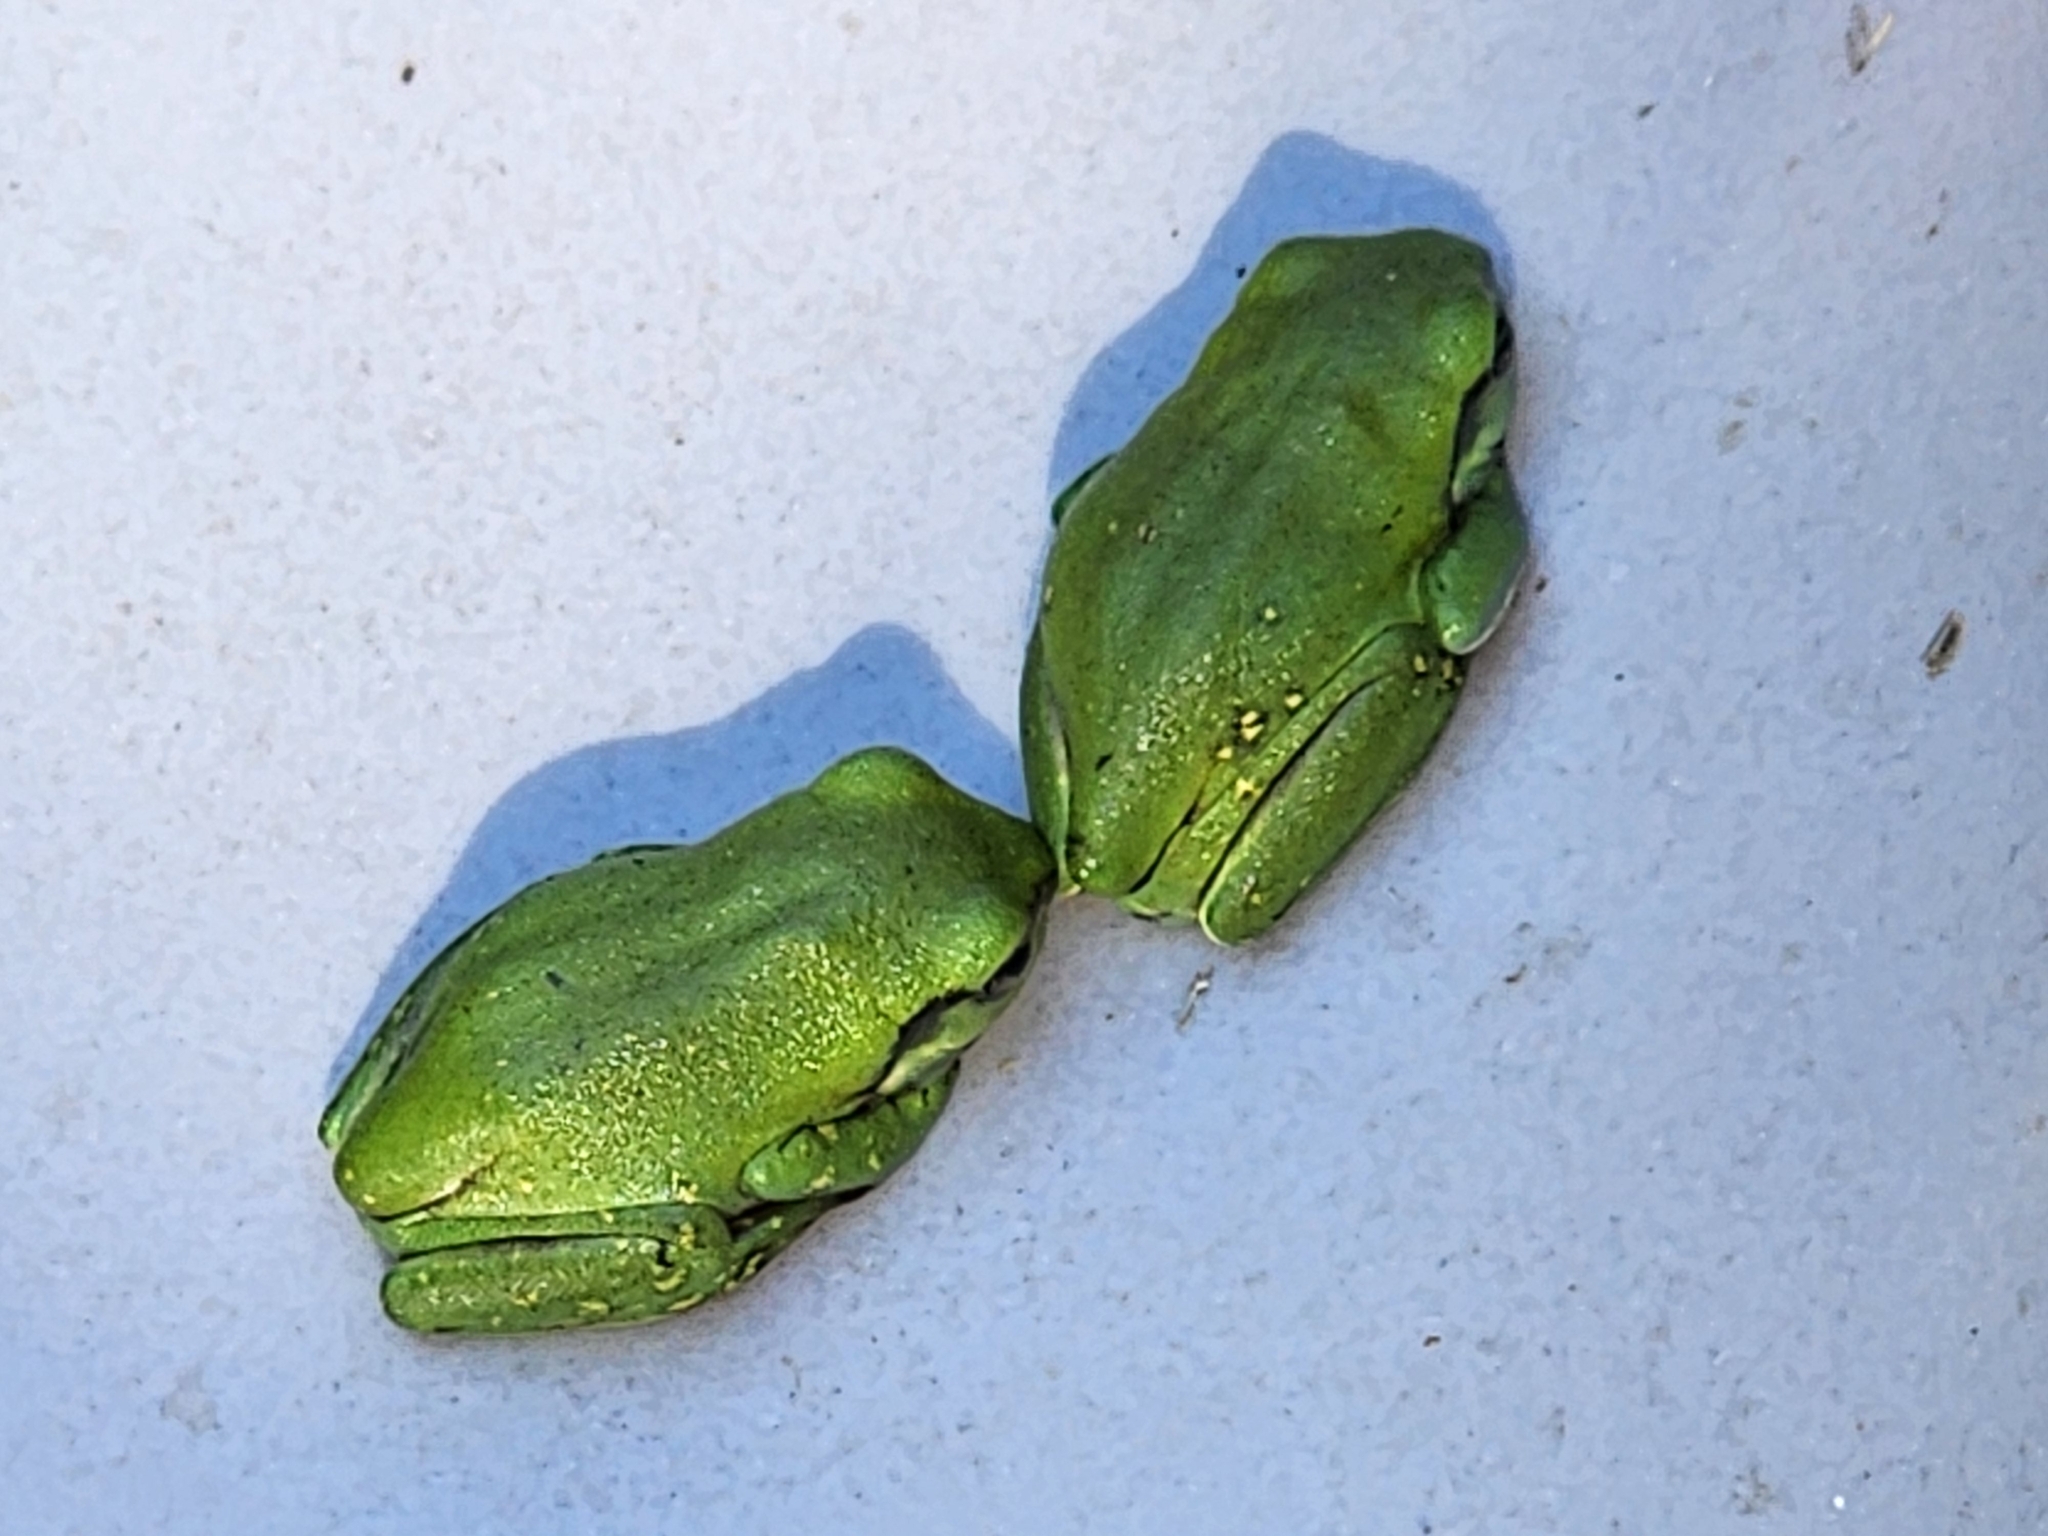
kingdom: Animalia
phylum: Chordata
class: Amphibia
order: Anura
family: Pelodryadidae
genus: Ranoidea
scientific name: Ranoidea caerulea
